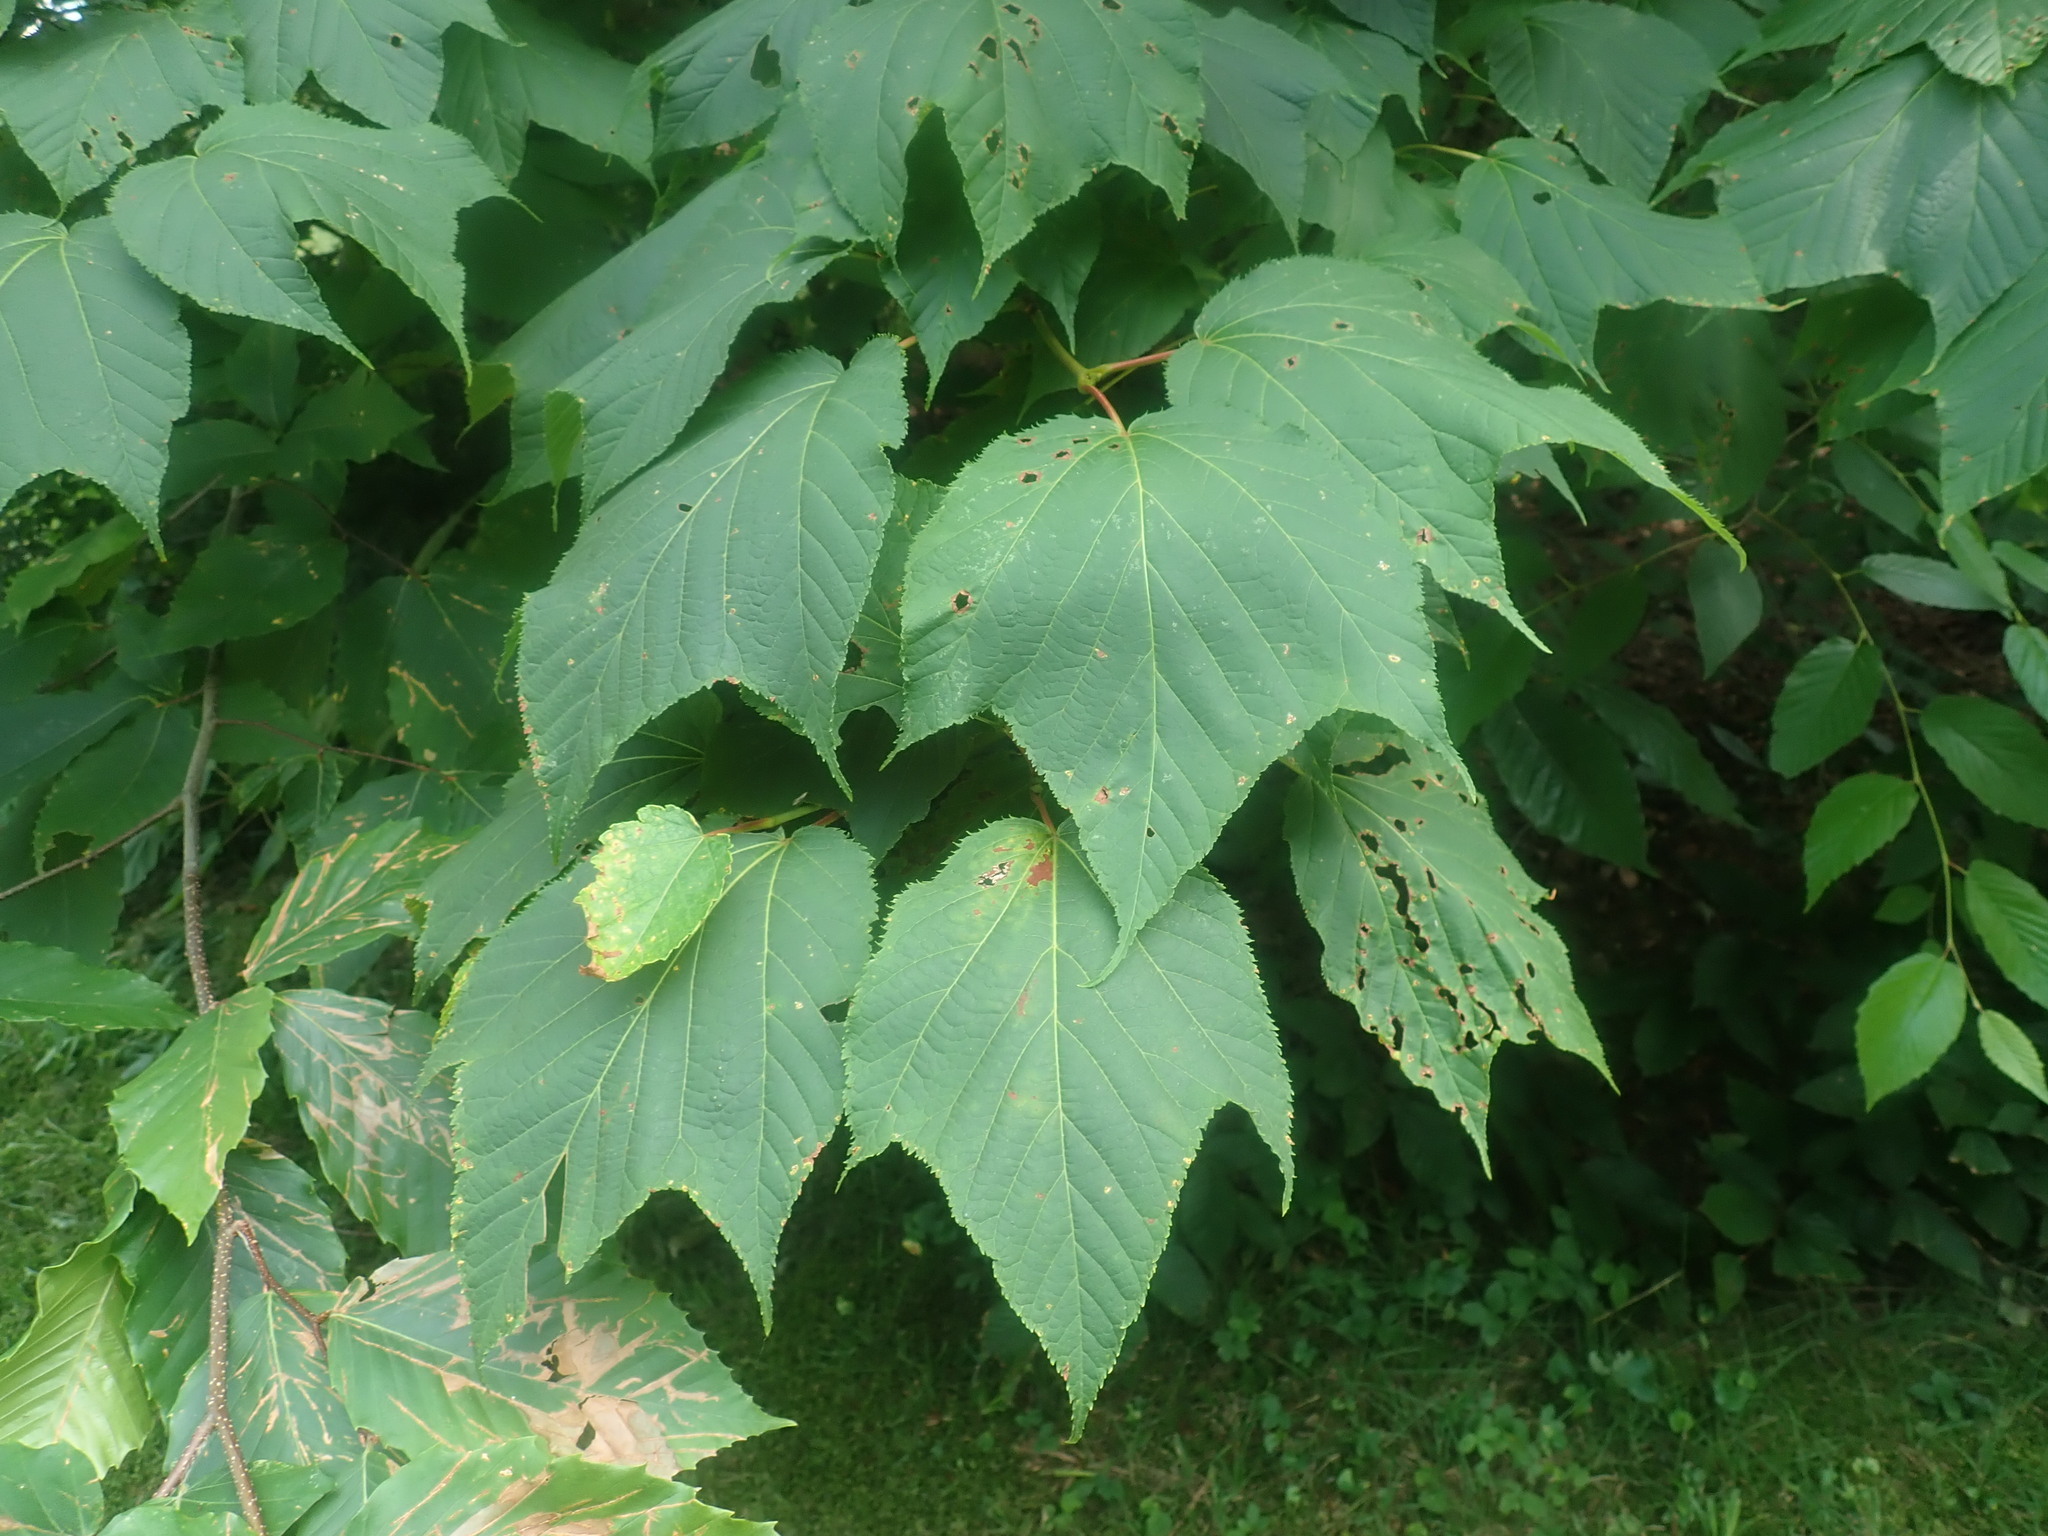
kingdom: Plantae
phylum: Tracheophyta
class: Magnoliopsida
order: Sapindales
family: Sapindaceae
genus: Acer
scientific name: Acer pensylvanicum
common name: Moosewood
